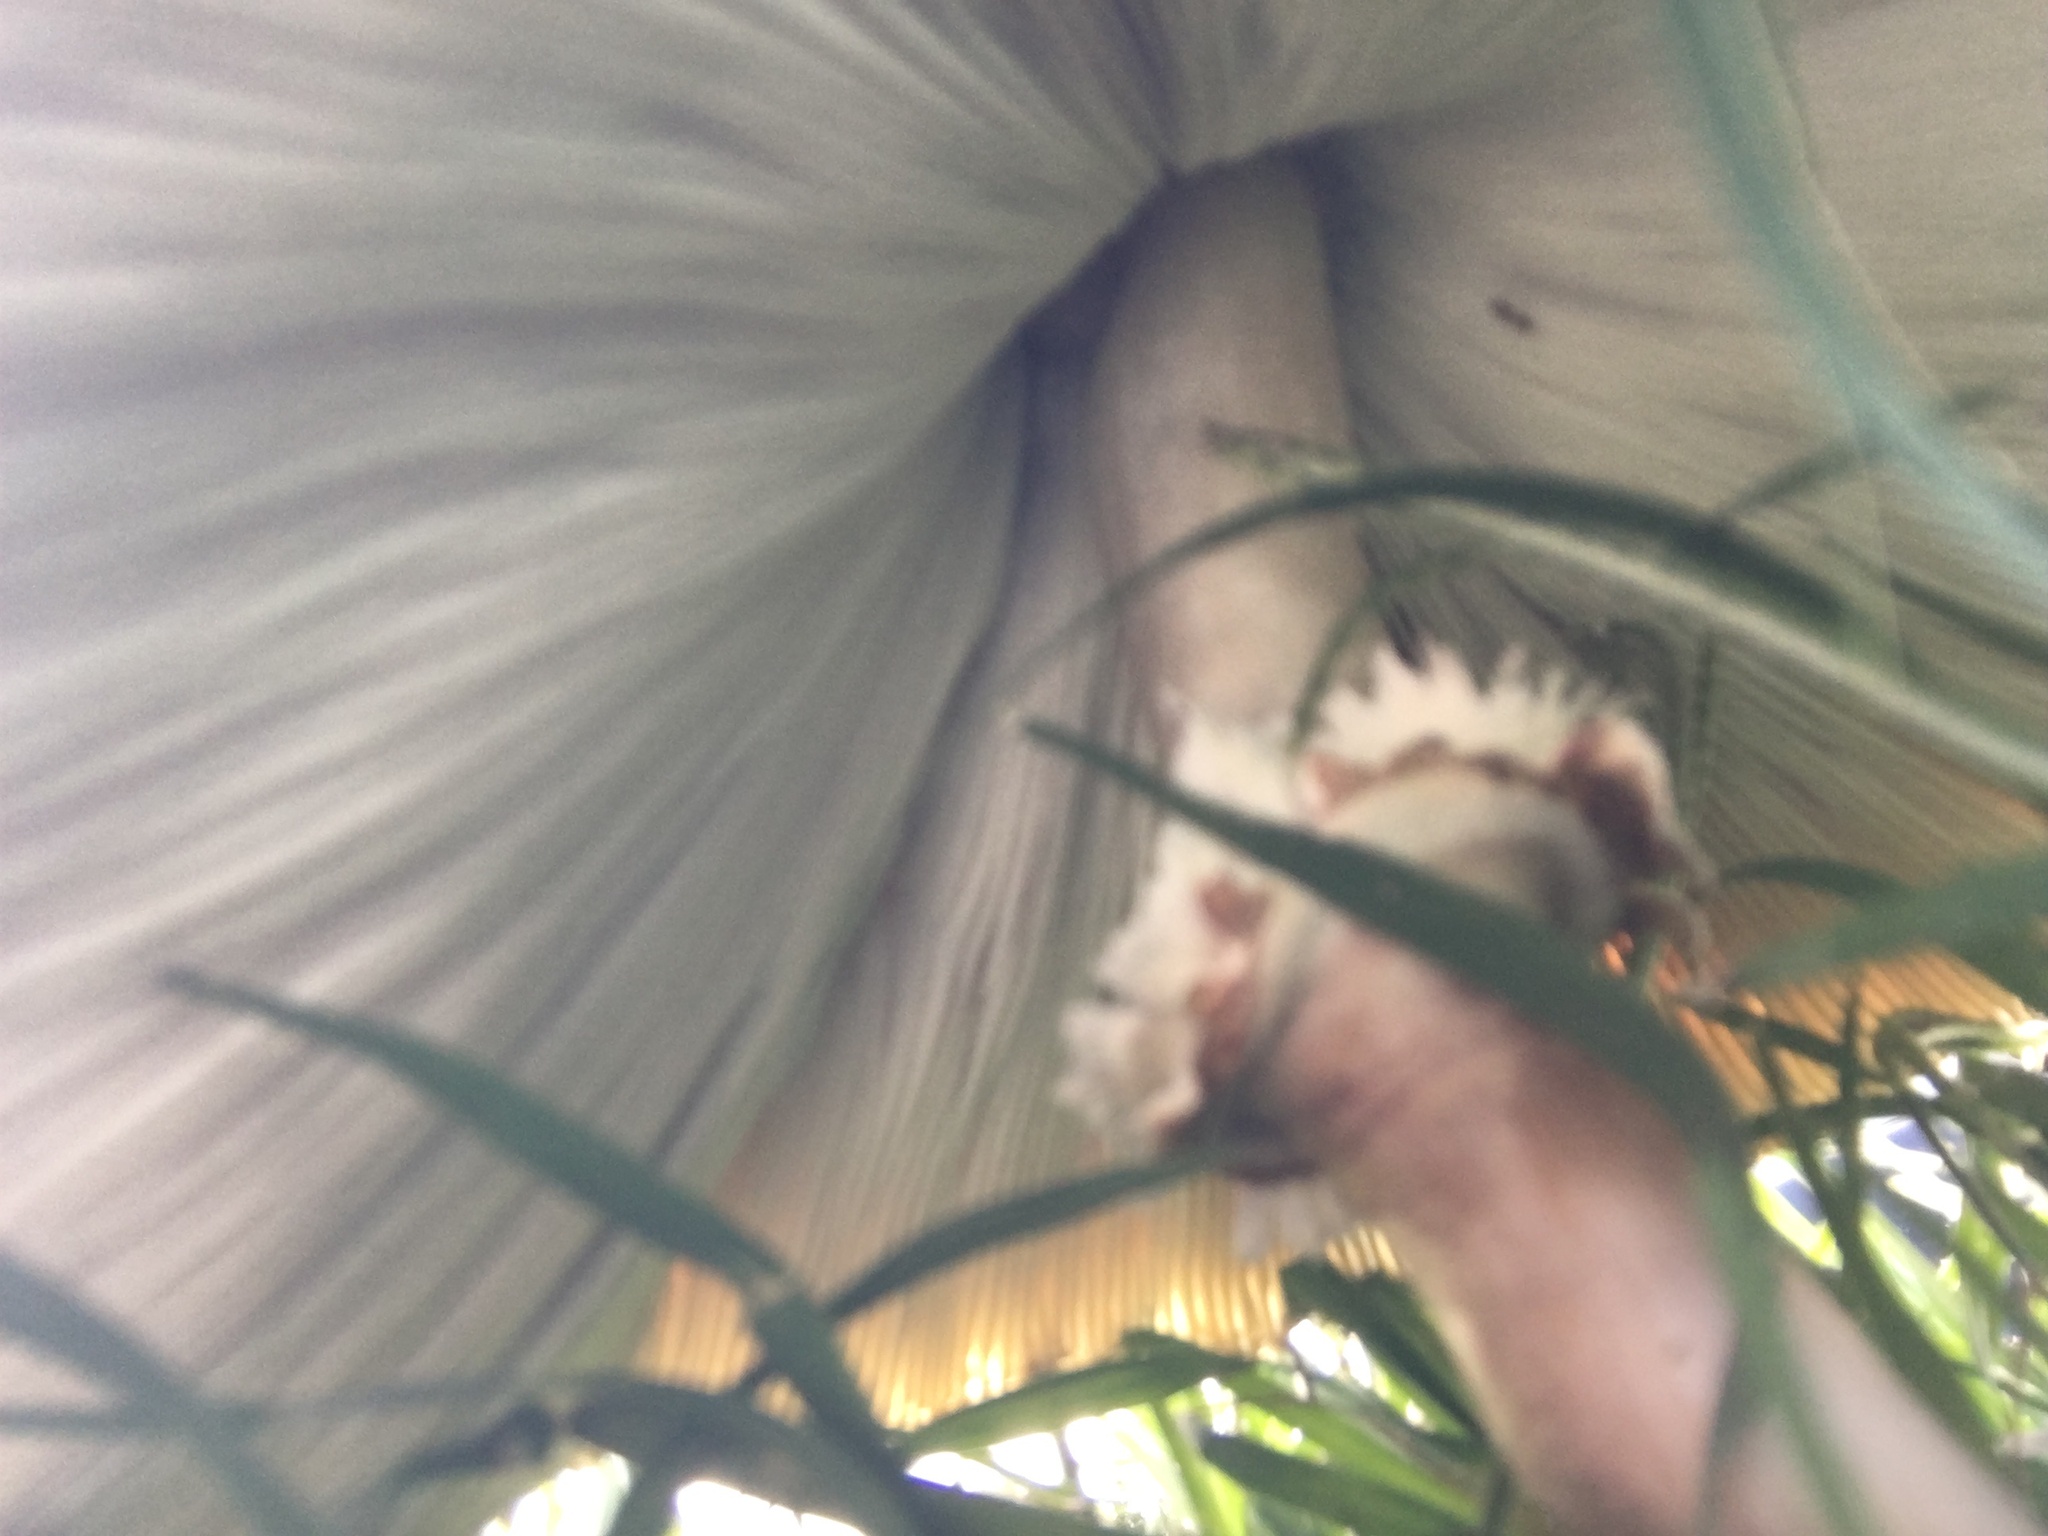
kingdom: Fungi
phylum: Basidiomycota
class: Agaricomycetes
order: Agaricales
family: Agaricaceae
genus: Chlorophyllum
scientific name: Chlorophyllum molybdites
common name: False parasol
